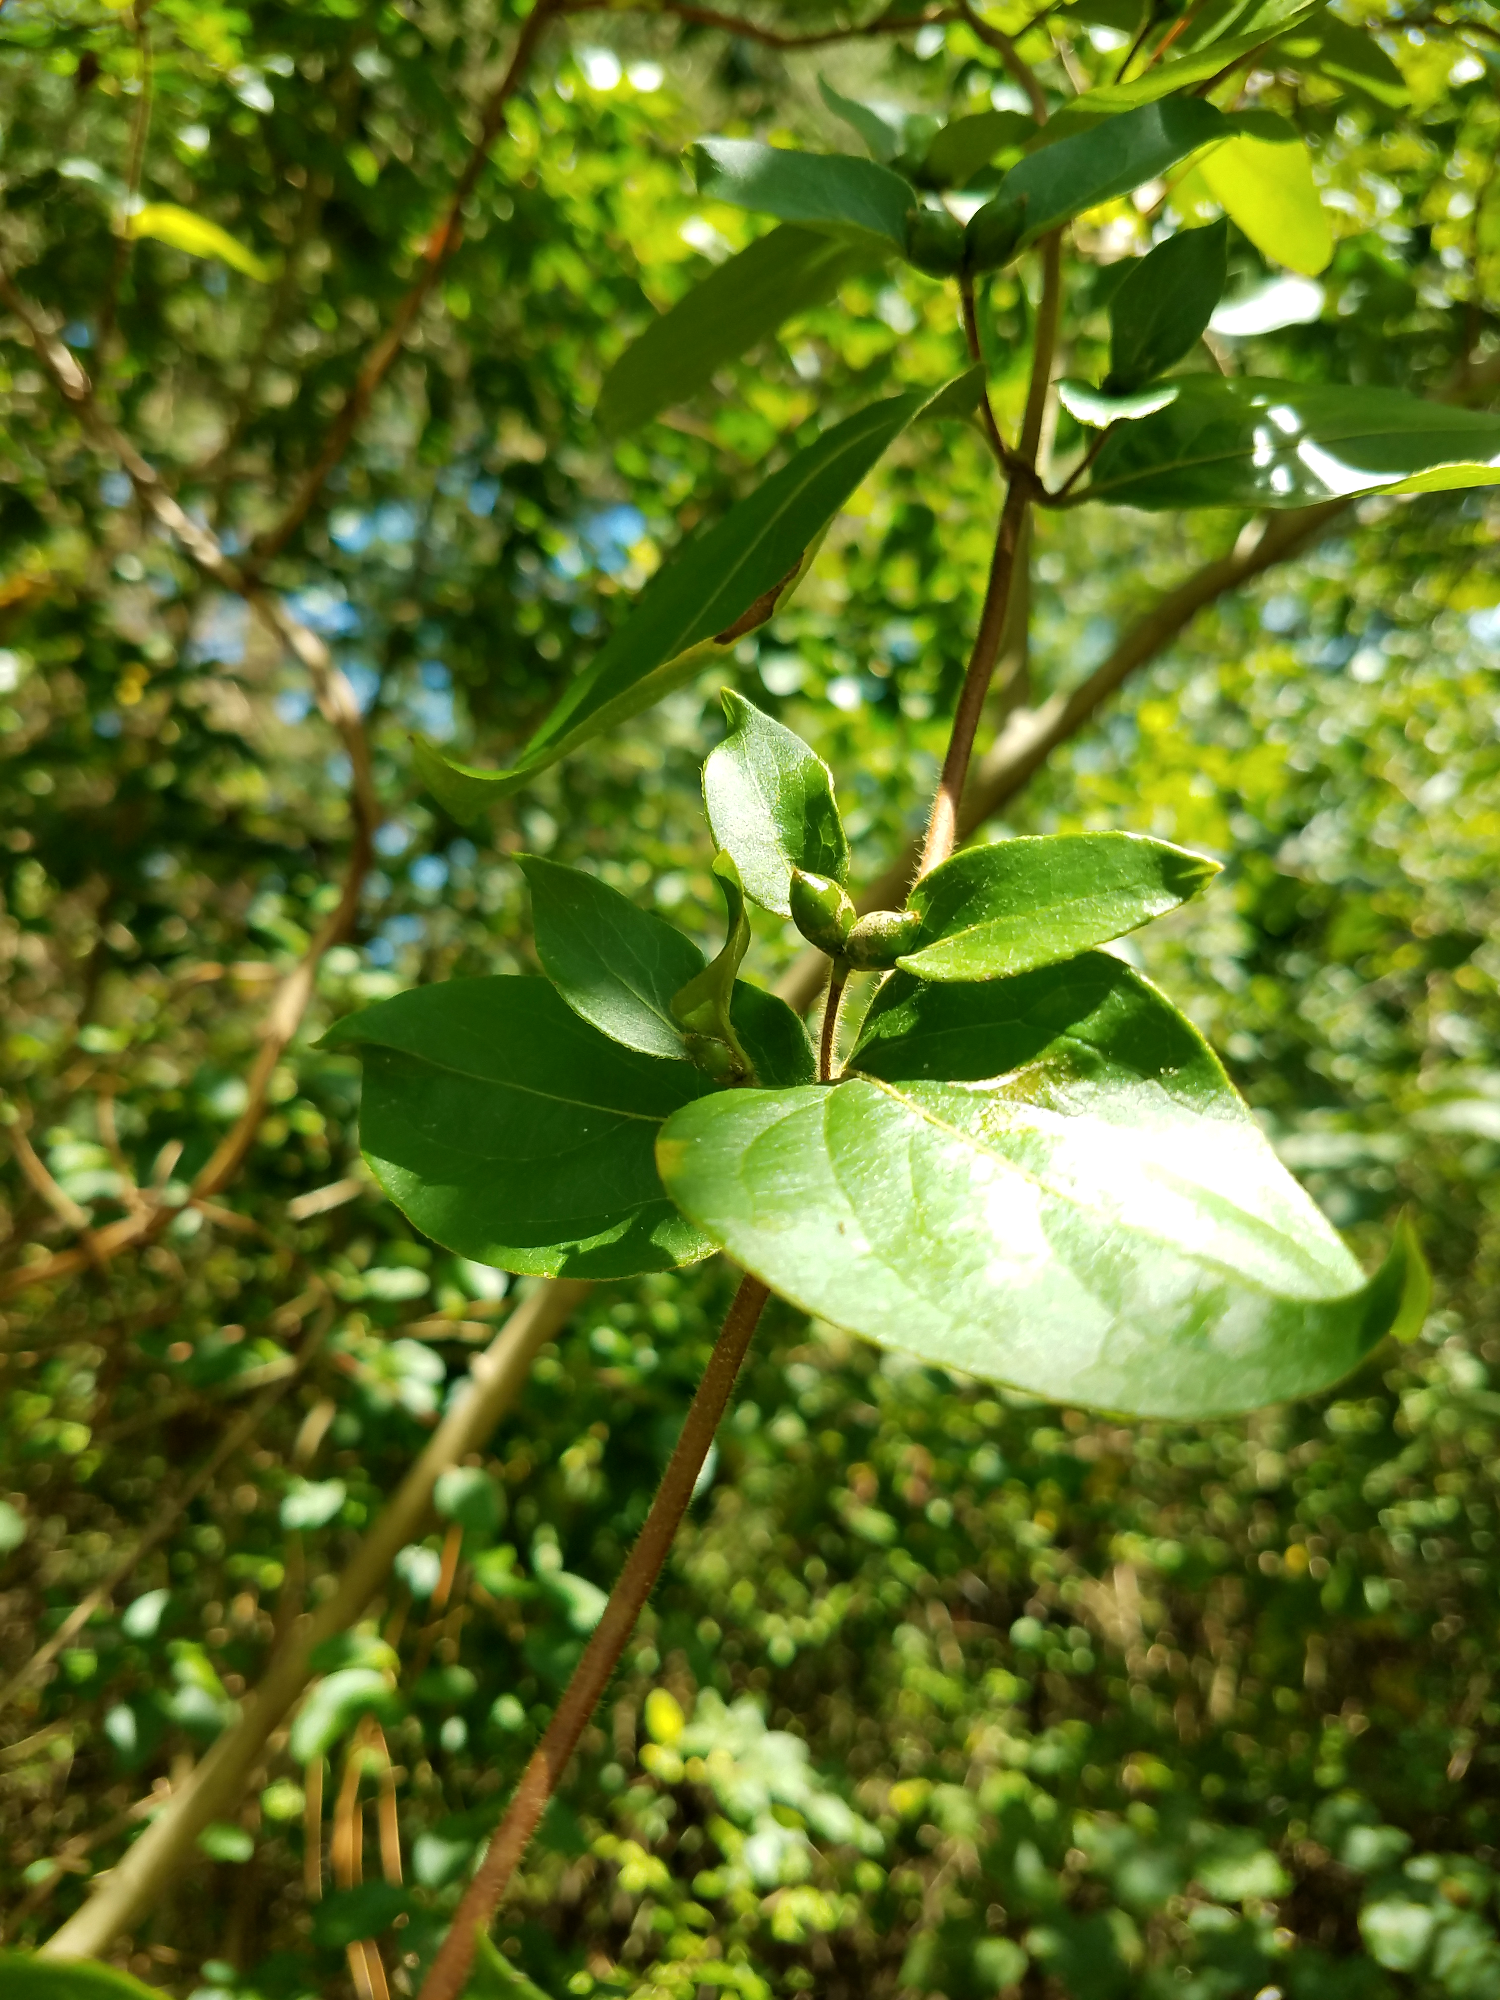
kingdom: Plantae
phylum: Tracheophyta
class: Magnoliopsida
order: Dipsacales
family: Caprifoliaceae
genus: Lonicera
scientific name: Lonicera japonica
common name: Japanese honeysuckle
